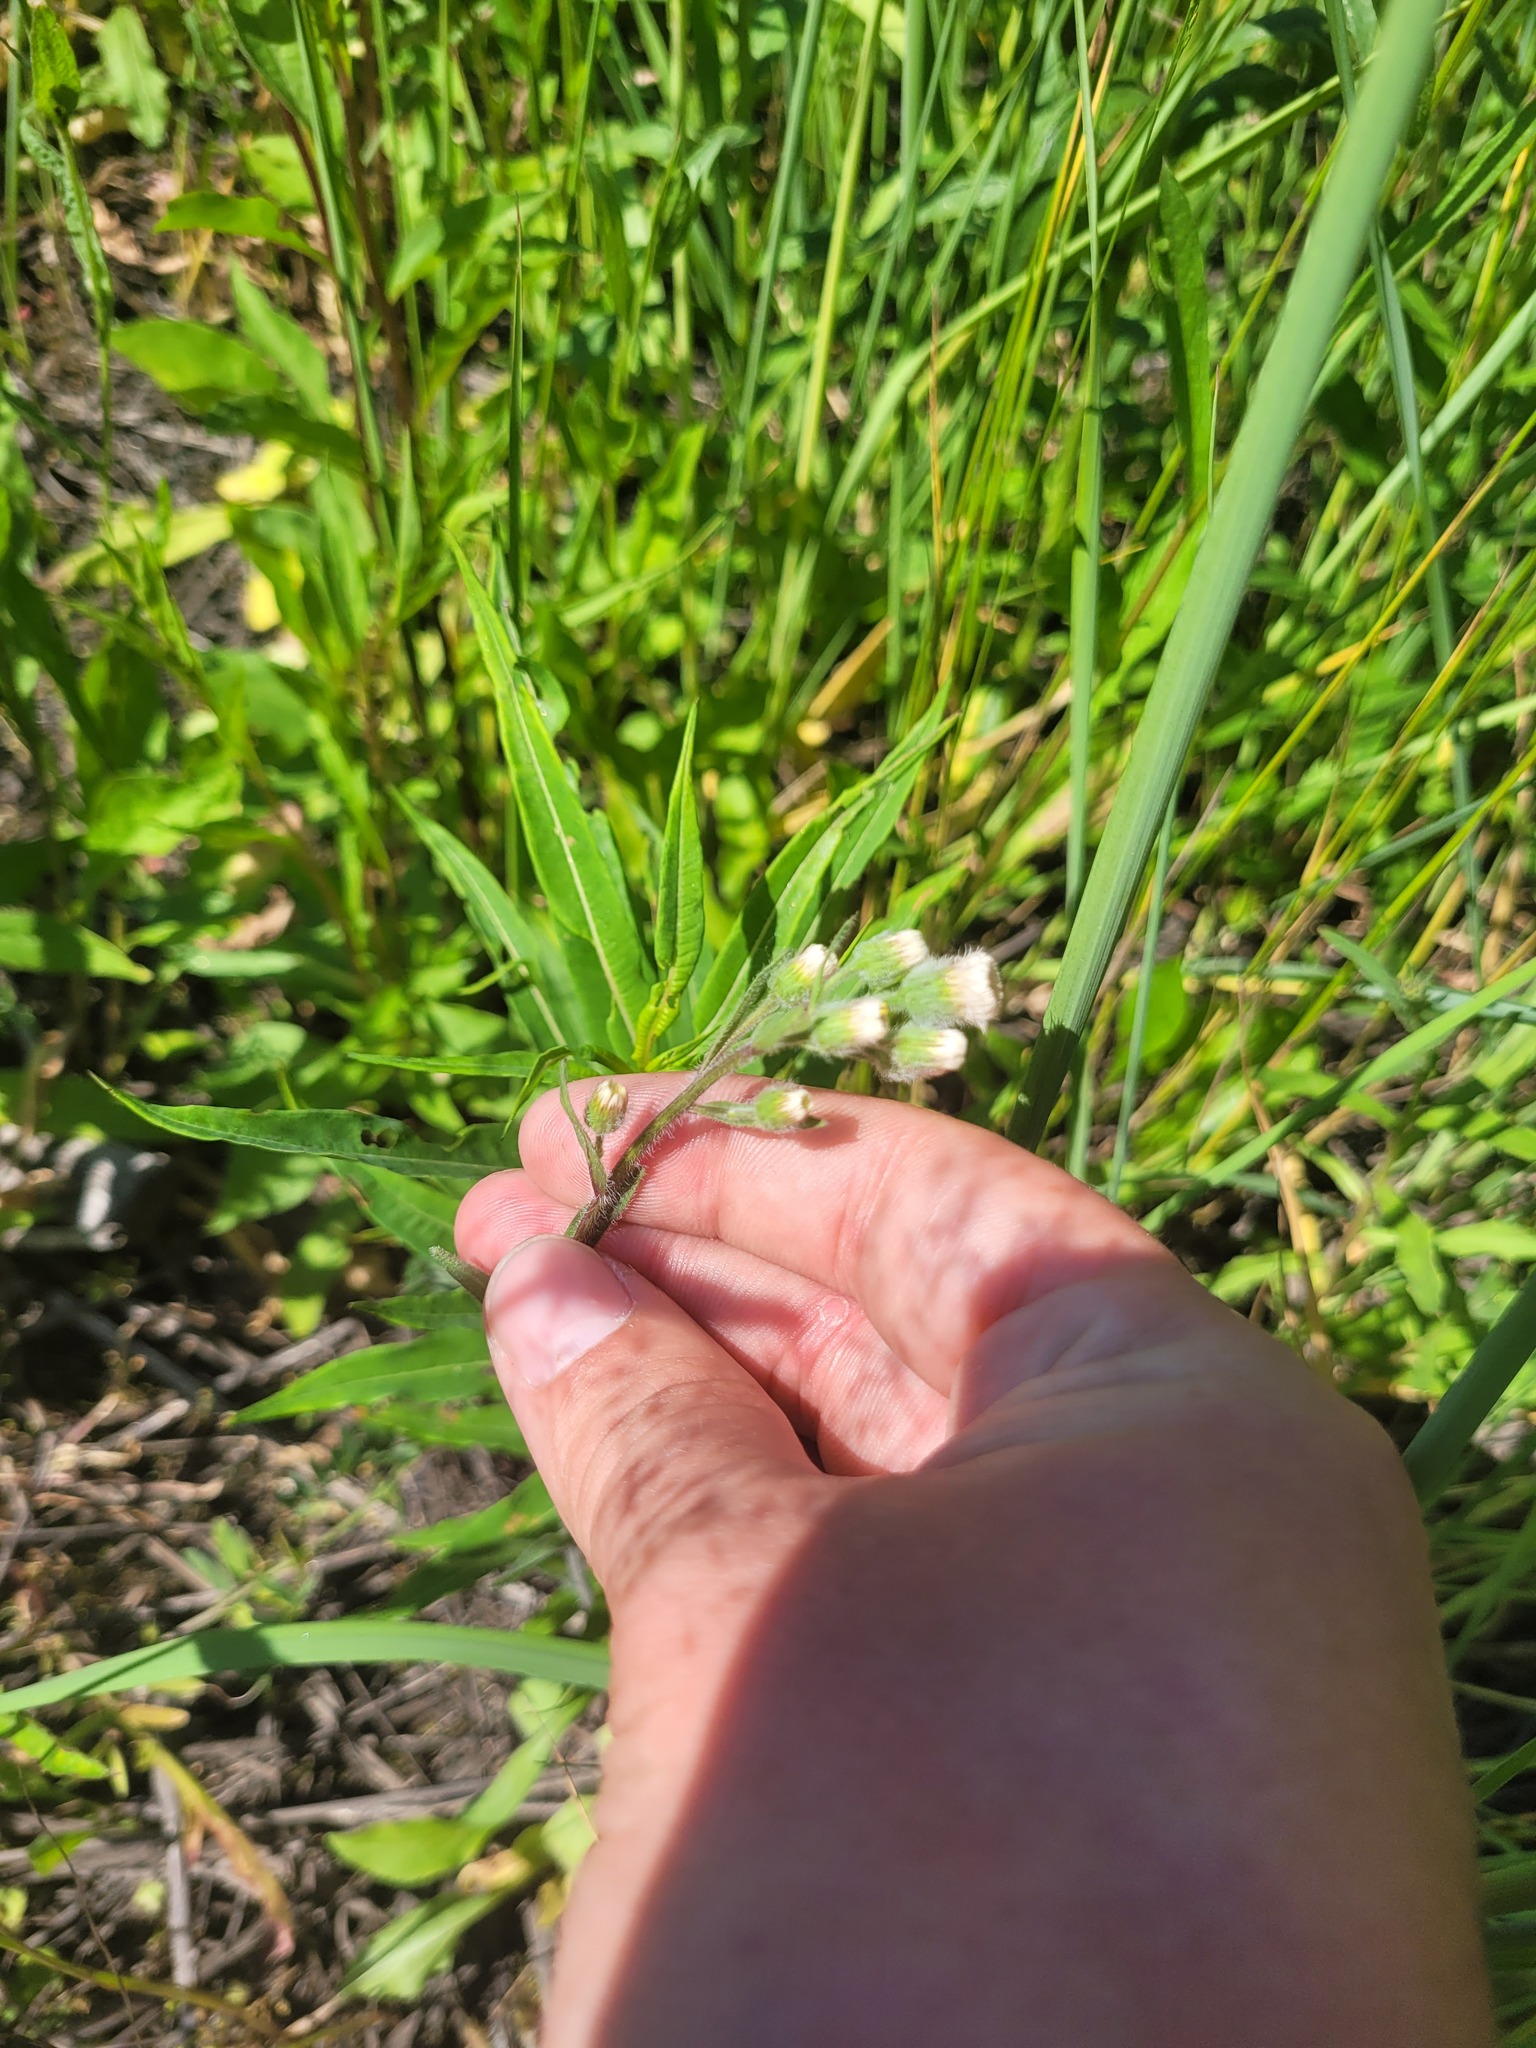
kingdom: Plantae
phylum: Tracheophyta
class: Magnoliopsida
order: Asterales
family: Asteraceae
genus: Erigeron
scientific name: Erigeron acris
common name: Blue fleabane
